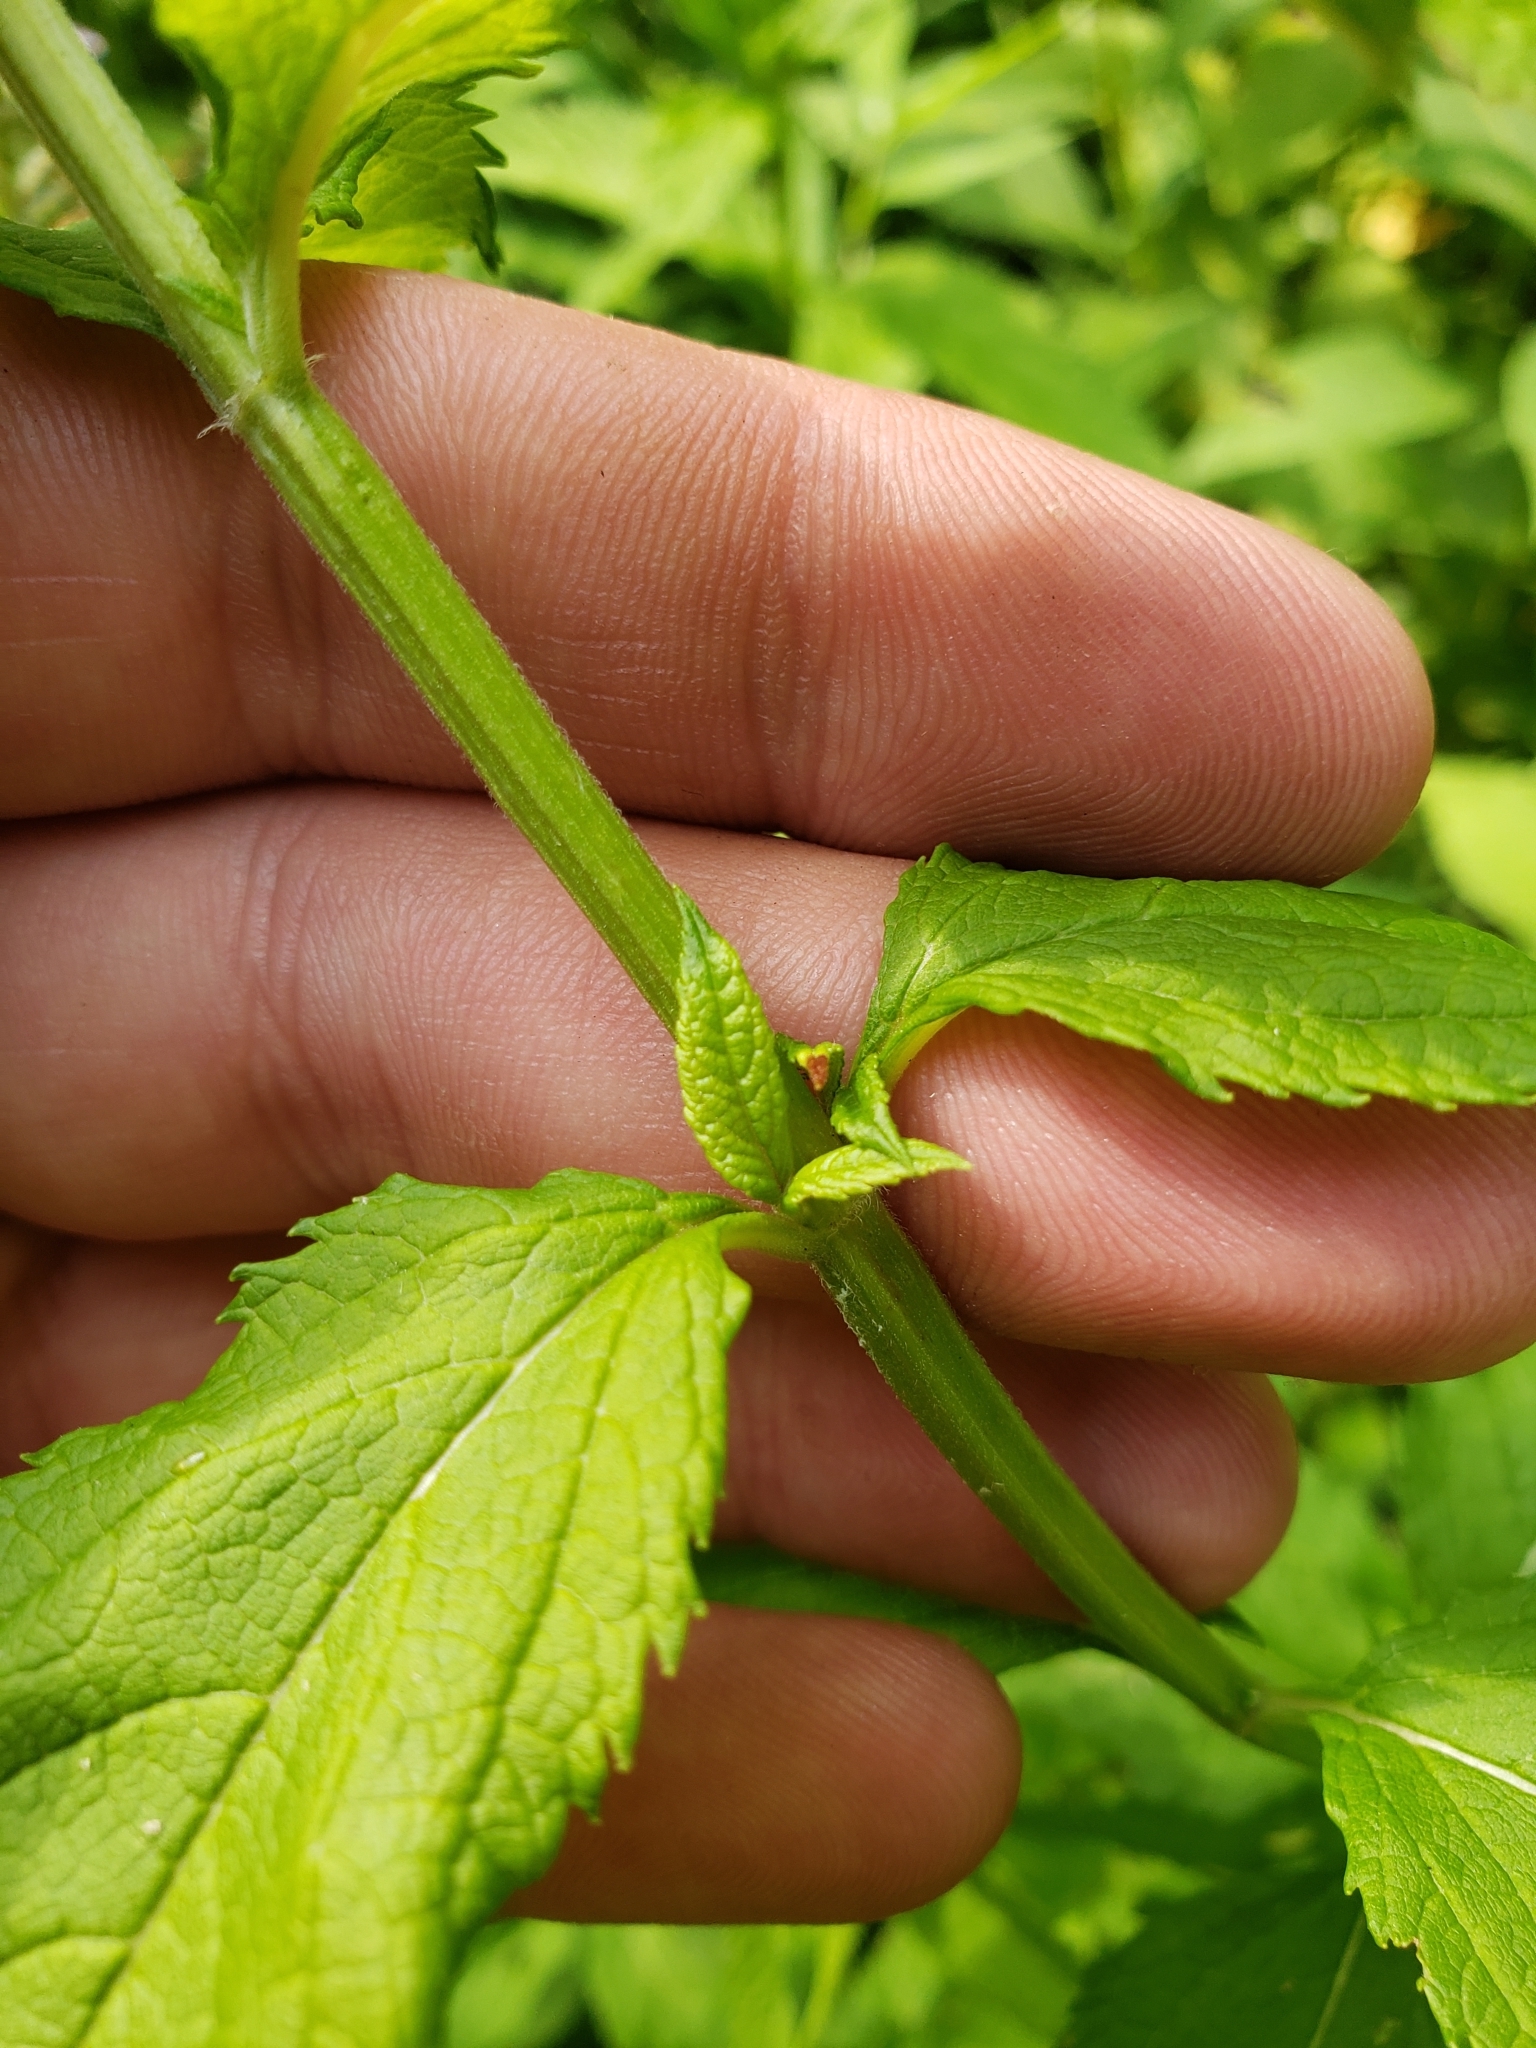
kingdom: Plantae
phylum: Tracheophyta
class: Magnoliopsida
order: Lamiales
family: Lamiaceae
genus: Teucrium
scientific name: Teucrium canadense
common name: American germander
